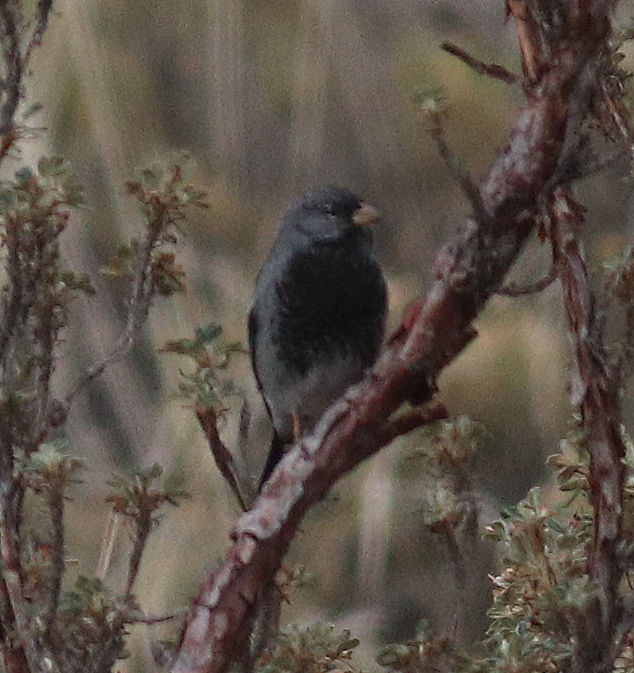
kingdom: Animalia
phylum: Chordata
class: Aves
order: Passeriformes
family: Thraupidae
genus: Rhopospina
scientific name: Rhopospina fruticeti
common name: Mourning sierra finch
